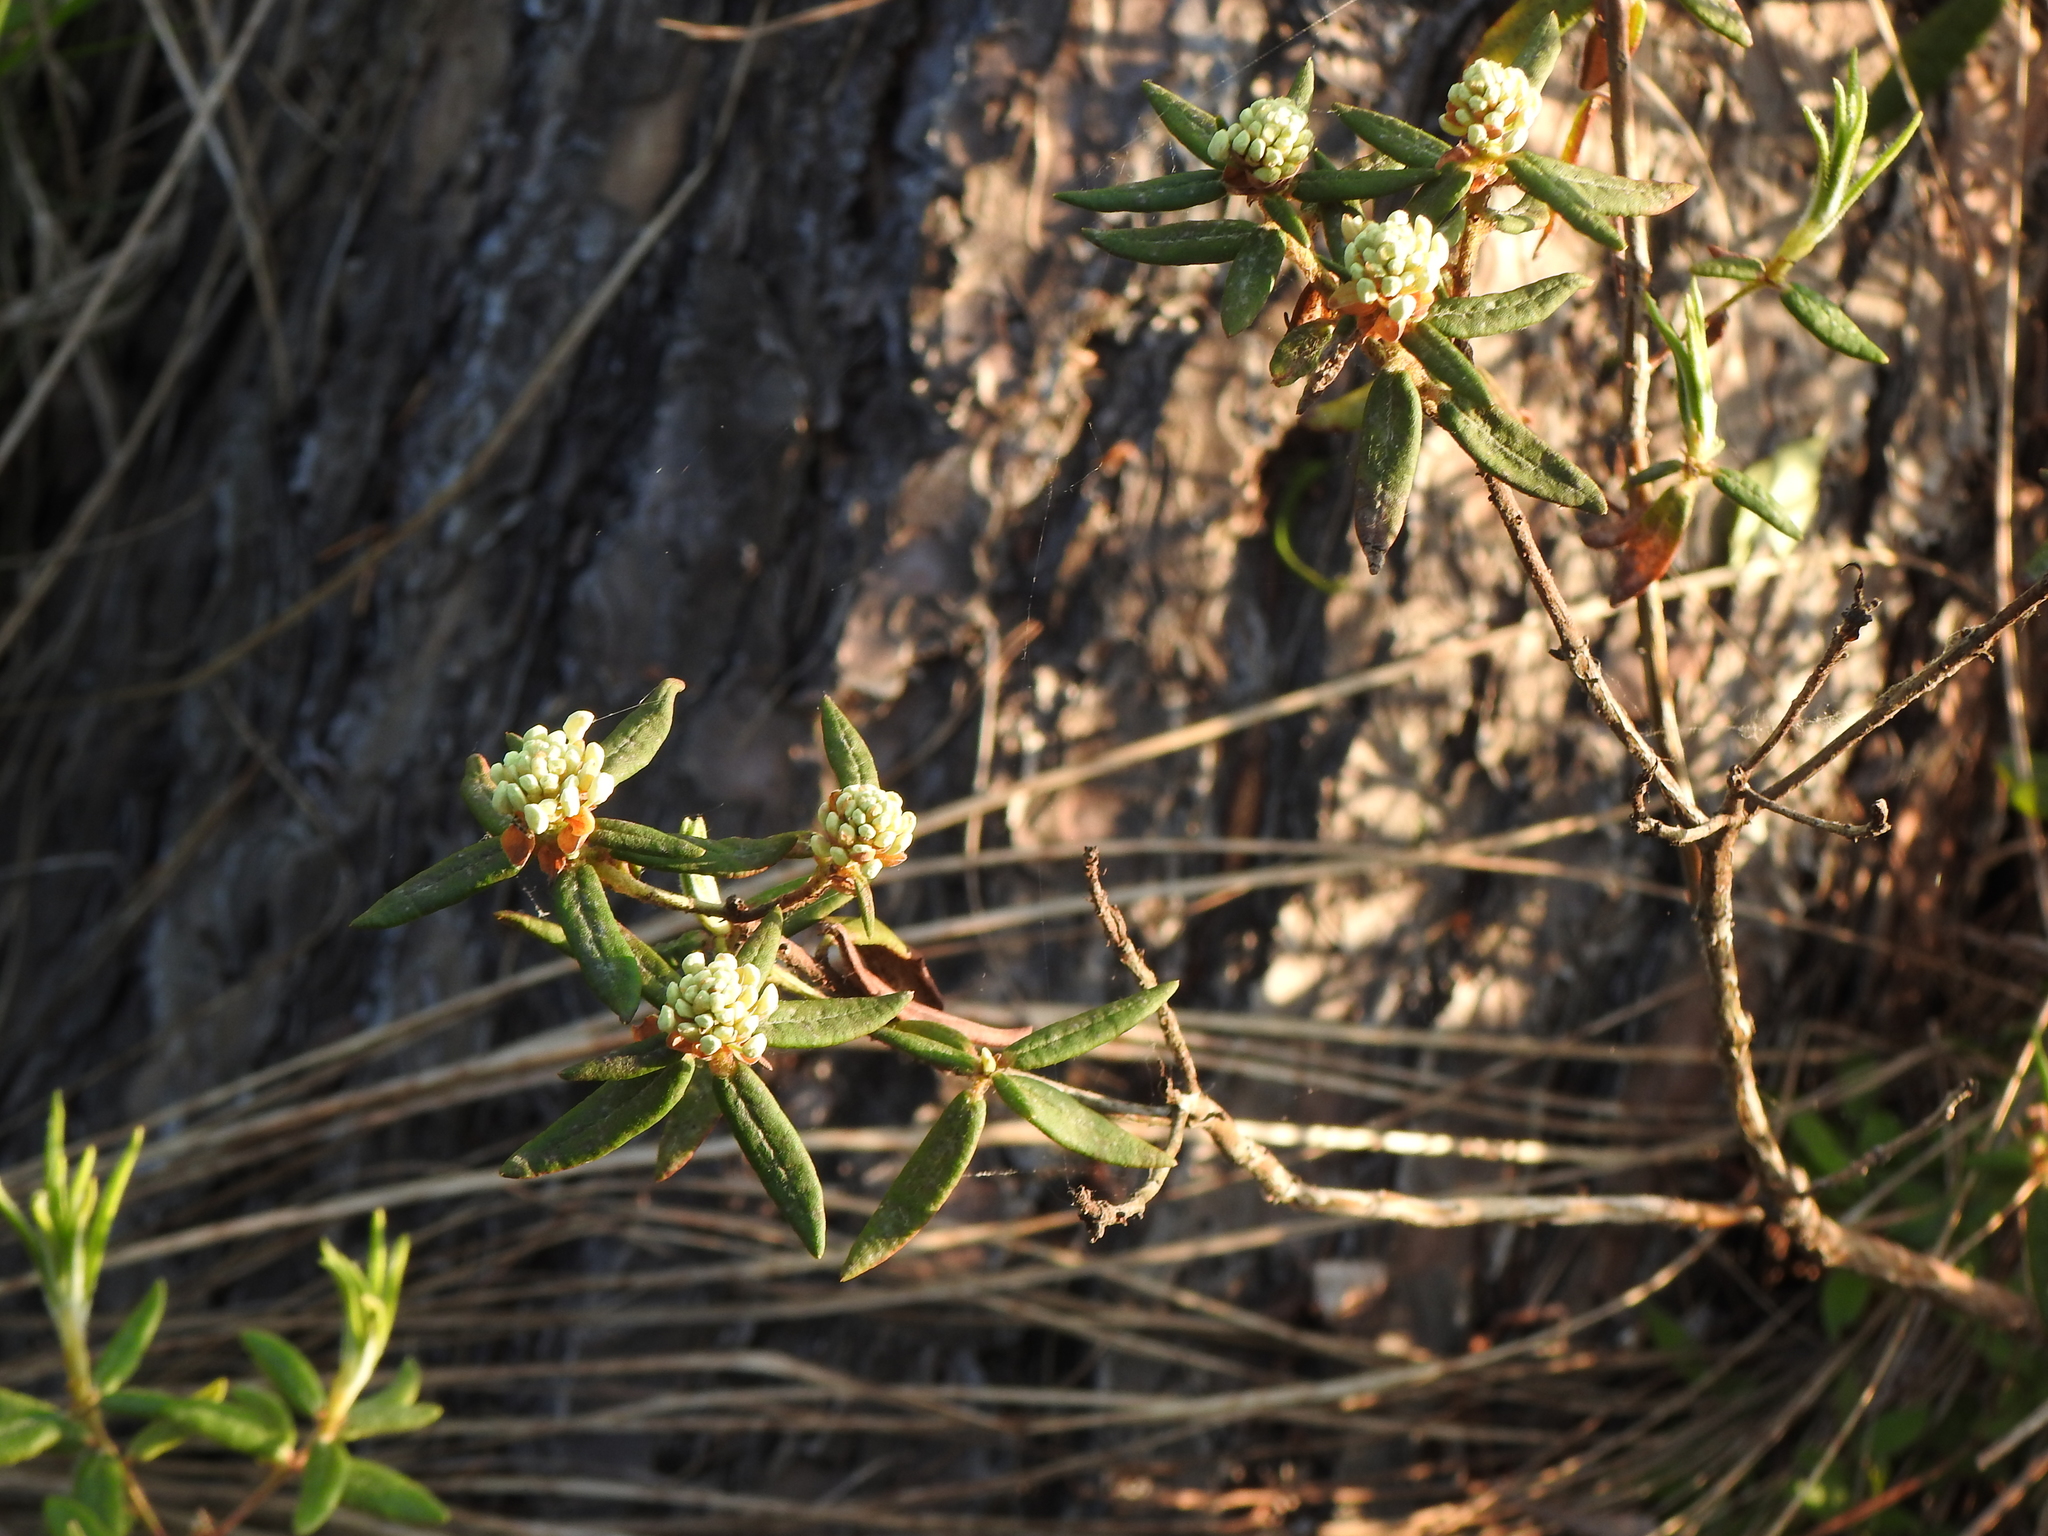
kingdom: Plantae
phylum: Tracheophyta
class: Magnoliopsida
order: Ericales
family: Ericaceae
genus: Rhododendron
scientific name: Rhododendron groenlandicum
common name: Bog labrador tea
